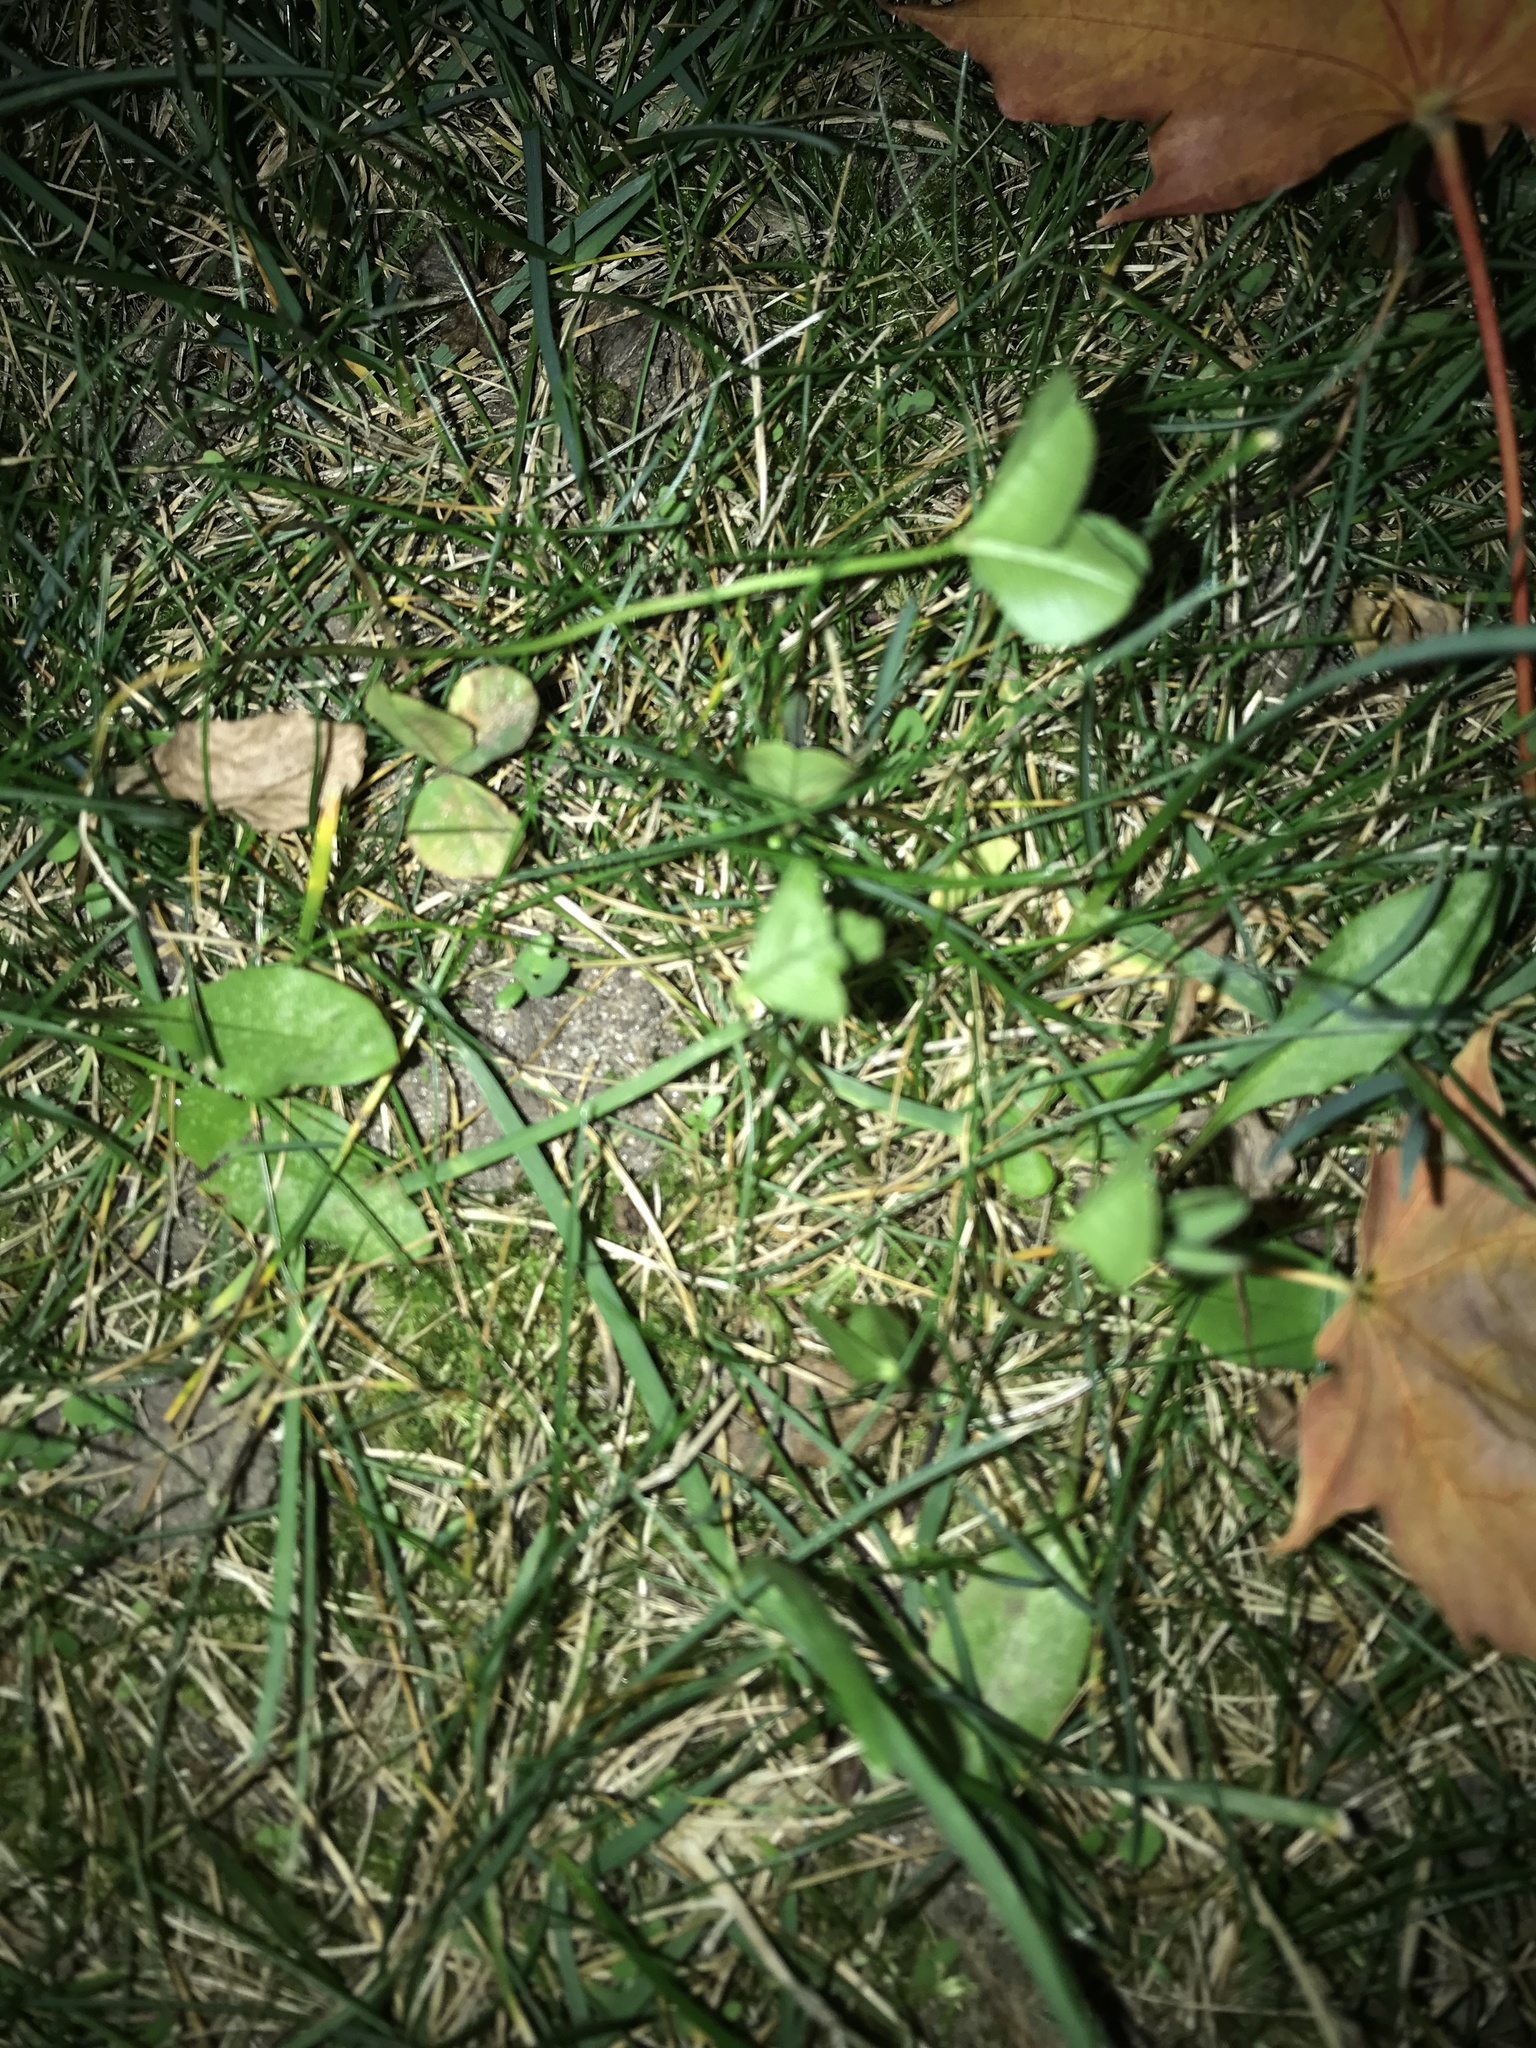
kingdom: Plantae
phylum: Tracheophyta
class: Magnoliopsida
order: Fabales
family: Fabaceae
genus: Trifolium
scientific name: Trifolium repens
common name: White clover
